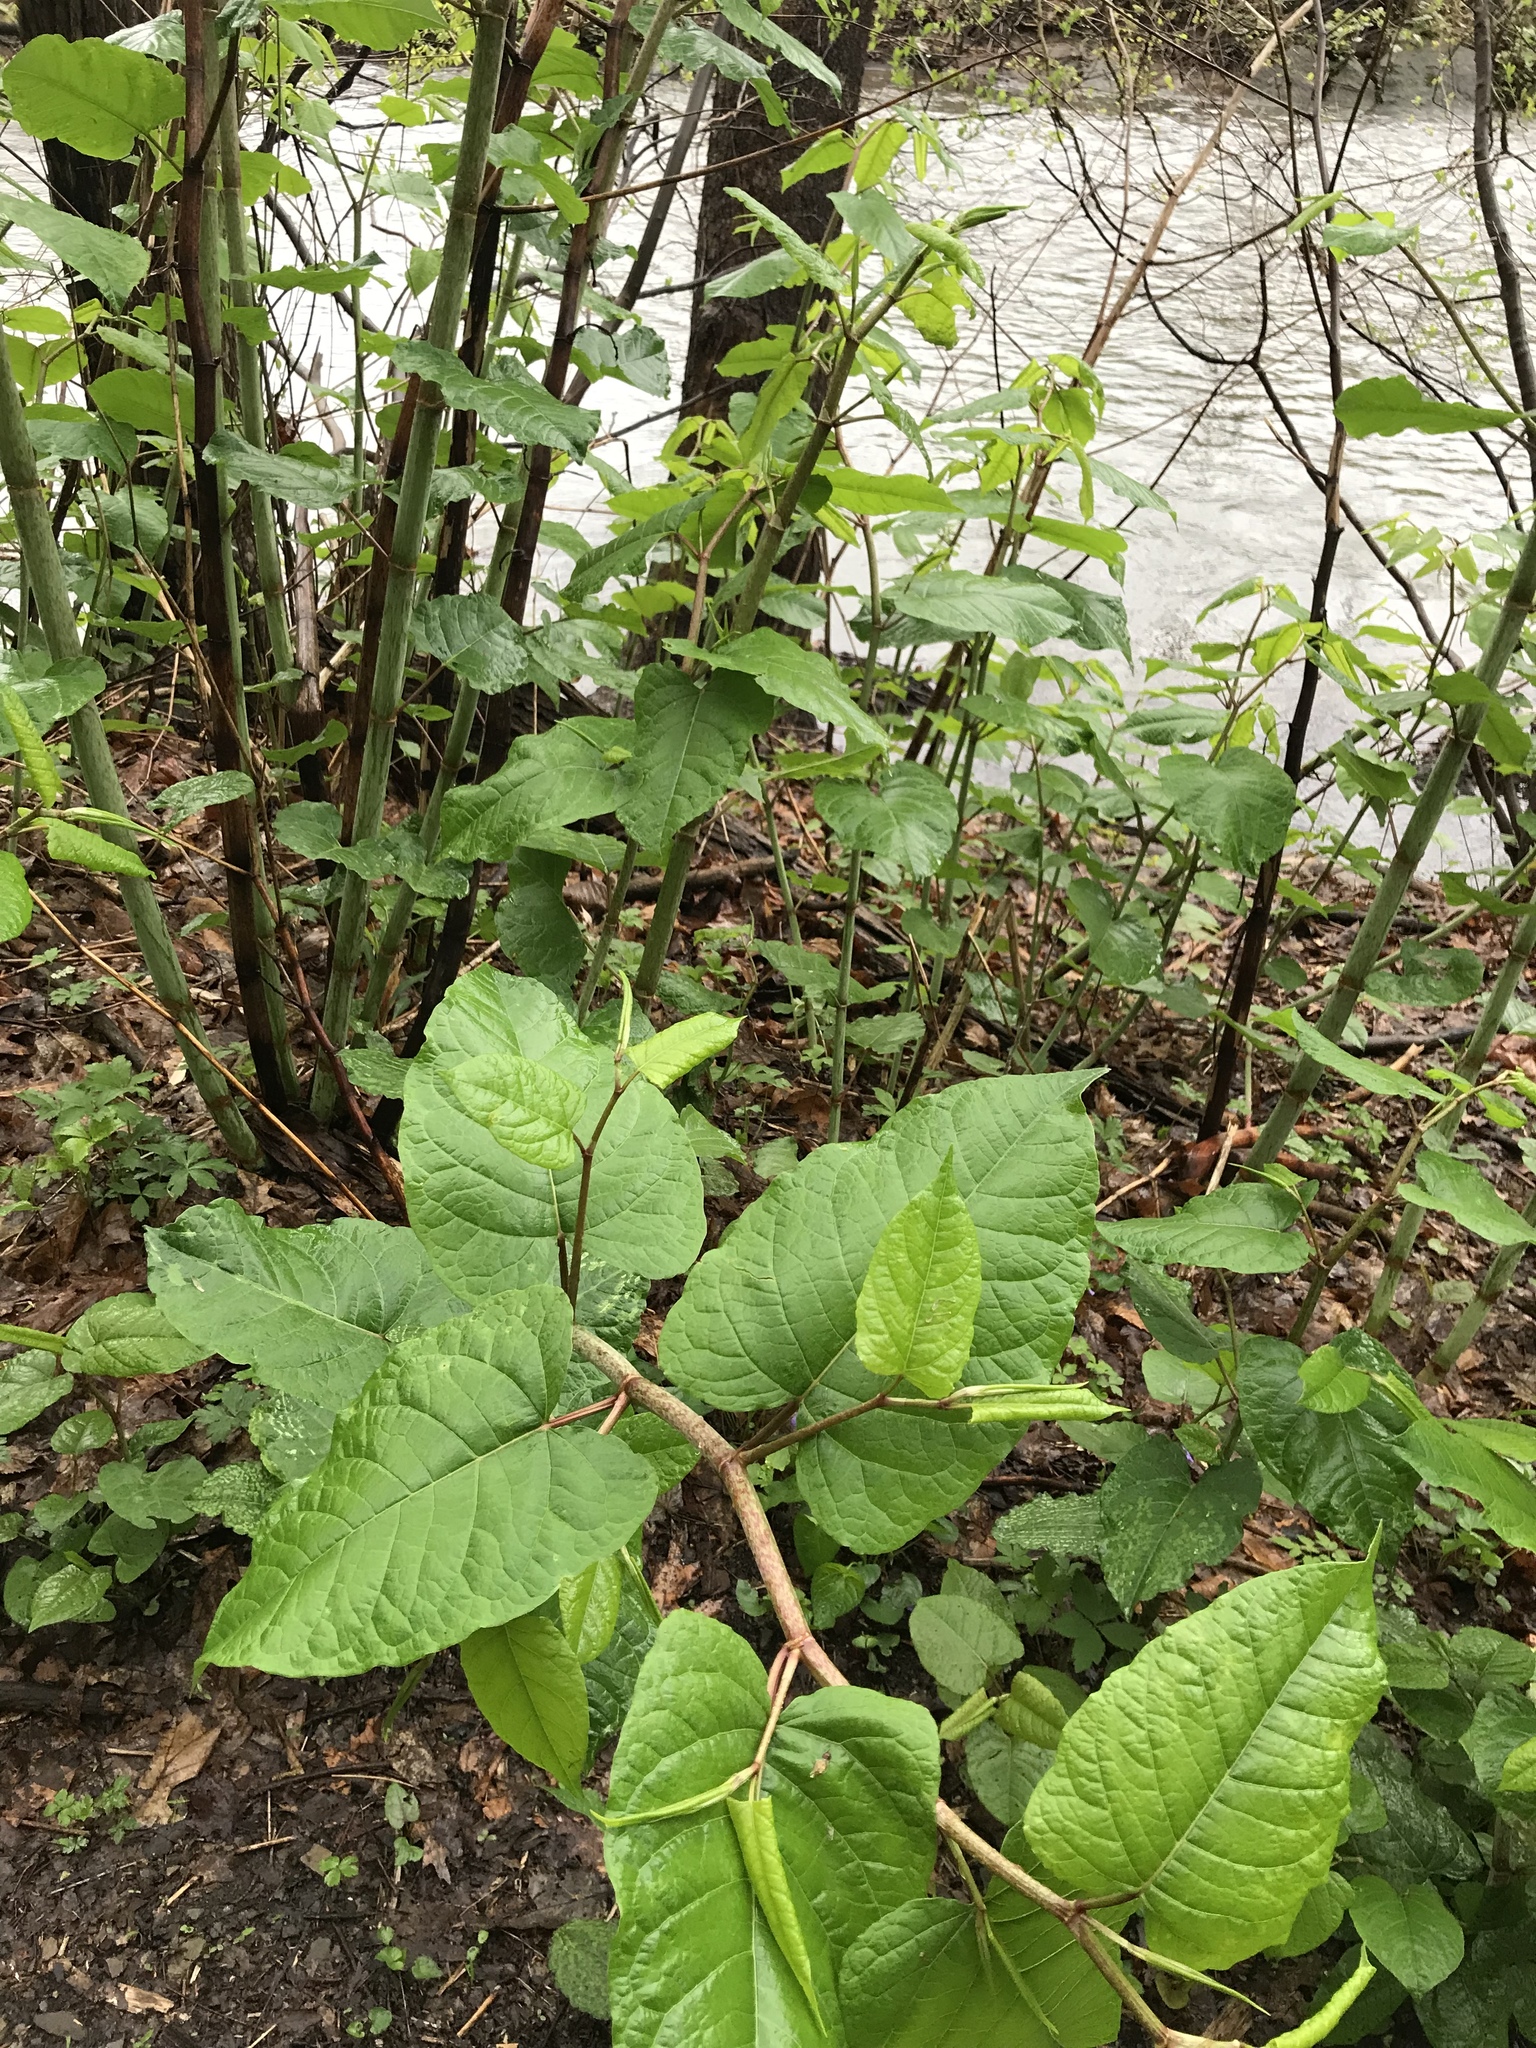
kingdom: Plantae
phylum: Tracheophyta
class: Magnoliopsida
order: Caryophyllales
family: Polygonaceae
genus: Reynoutria
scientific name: Reynoutria sachalinensis
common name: Giant knotweed
